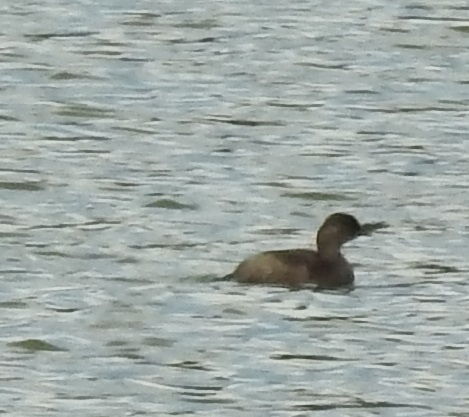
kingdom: Animalia
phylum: Chordata
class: Aves
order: Podicipediformes
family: Podicipedidae
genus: Tachybaptus
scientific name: Tachybaptus ruficollis
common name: Little grebe
